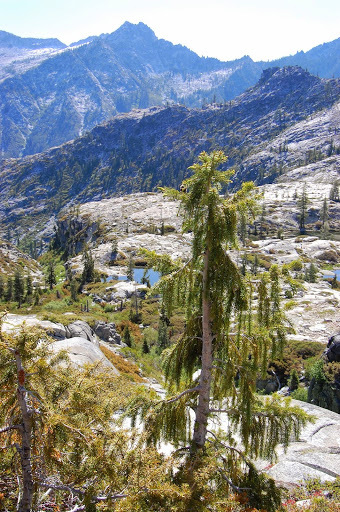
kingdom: Plantae
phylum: Tracheophyta
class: Pinopsida
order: Pinales
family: Pinaceae
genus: Picea
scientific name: Picea breweriana
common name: Brewer's spruce
